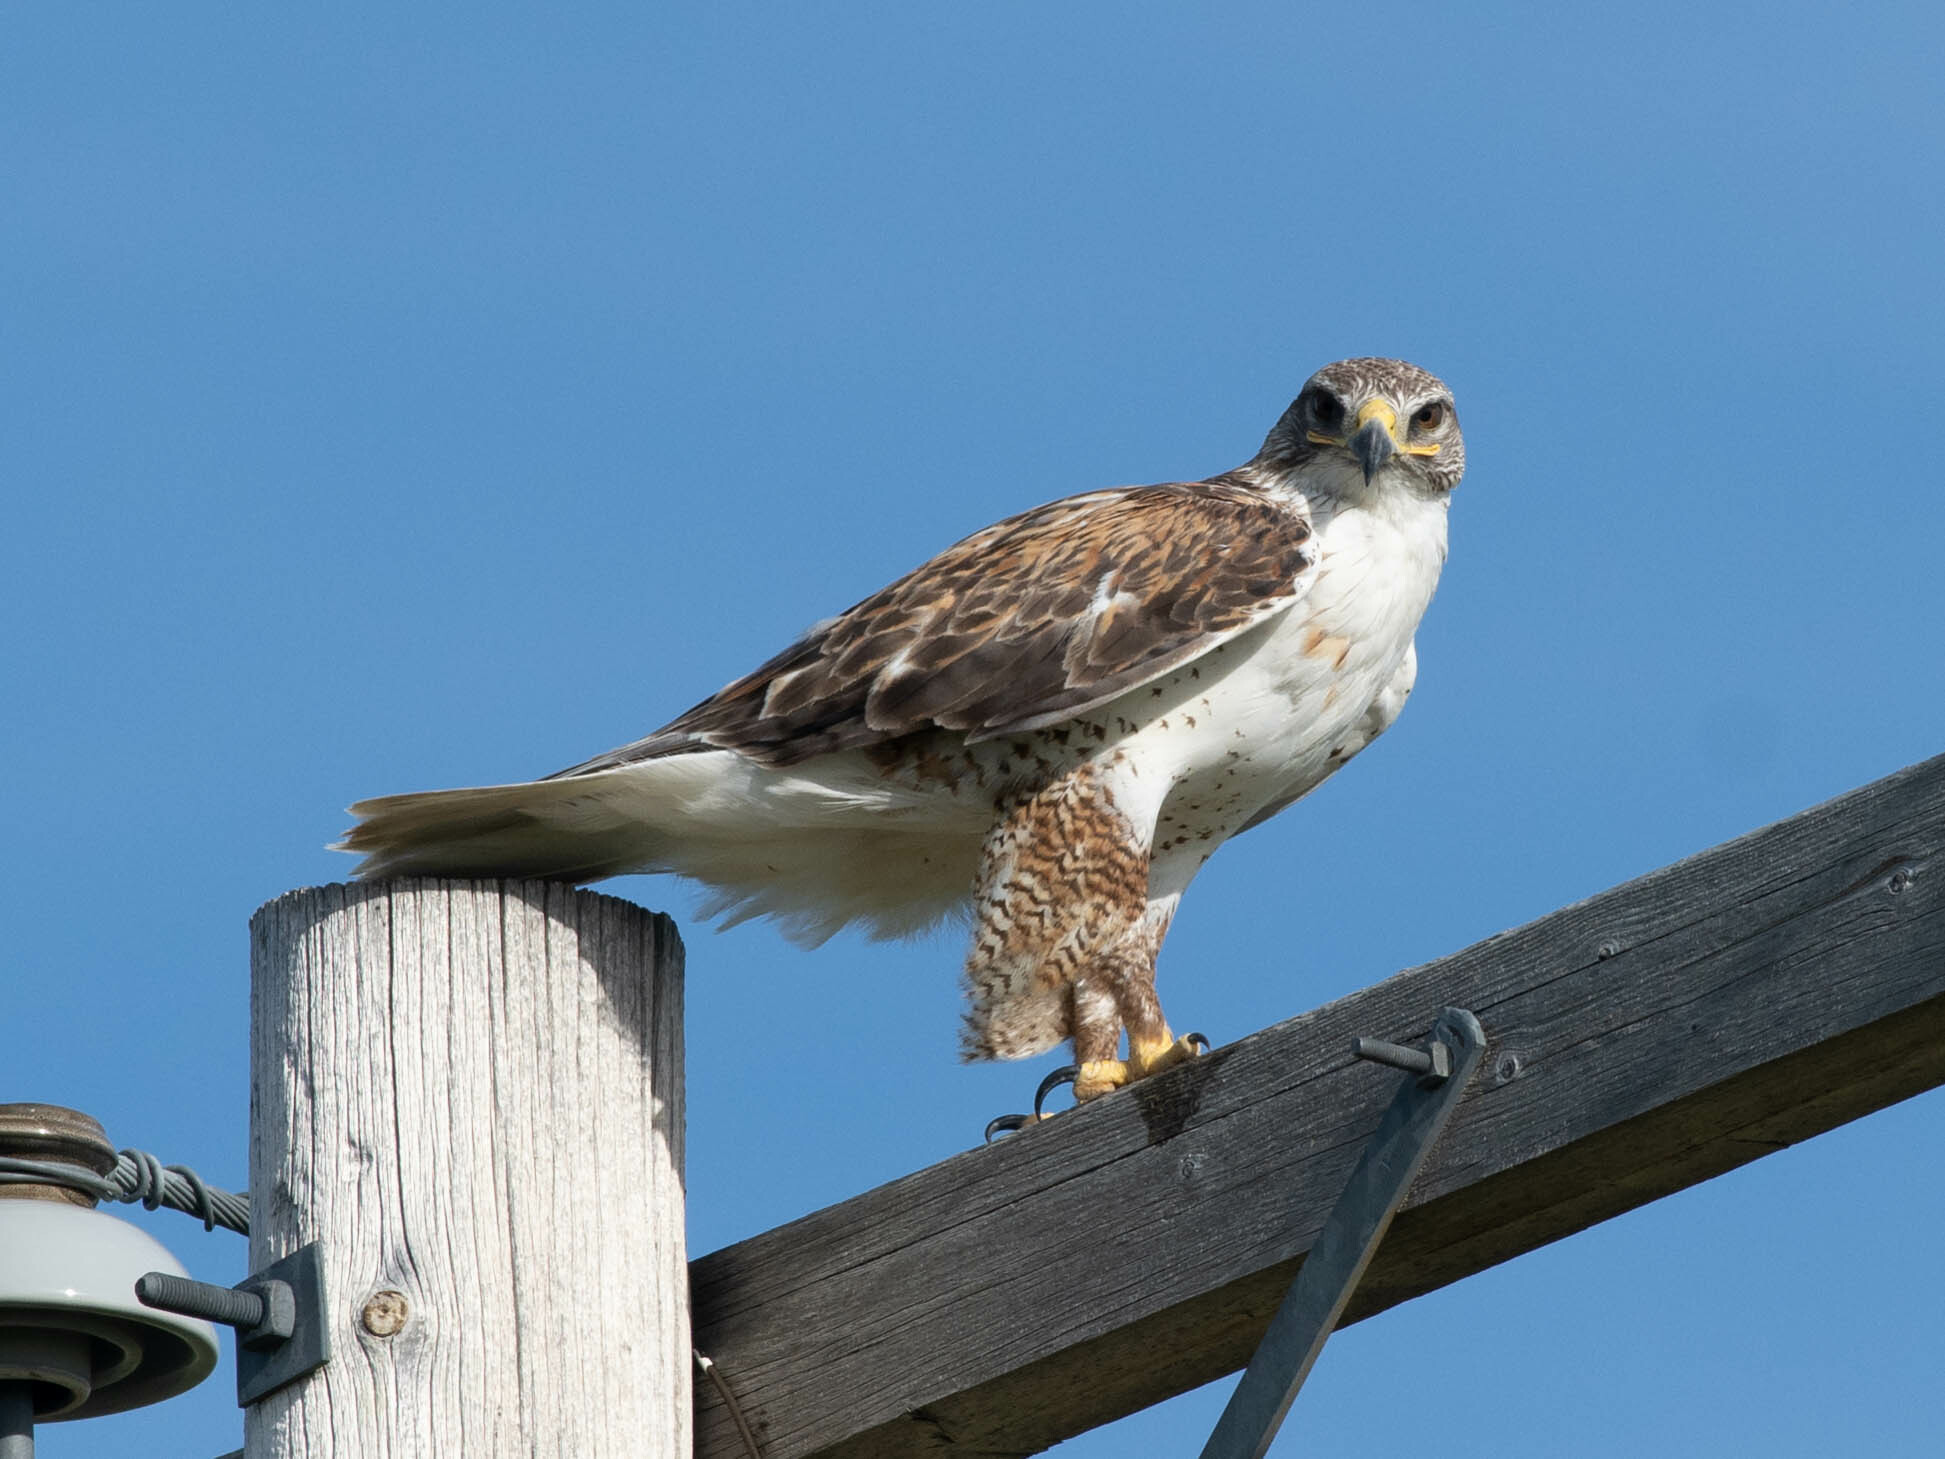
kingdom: Animalia
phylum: Chordata
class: Aves
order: Accipitriformes
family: Accipitridae
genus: Buteo
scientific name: Buteo regalis
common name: Ferruginous hawk
